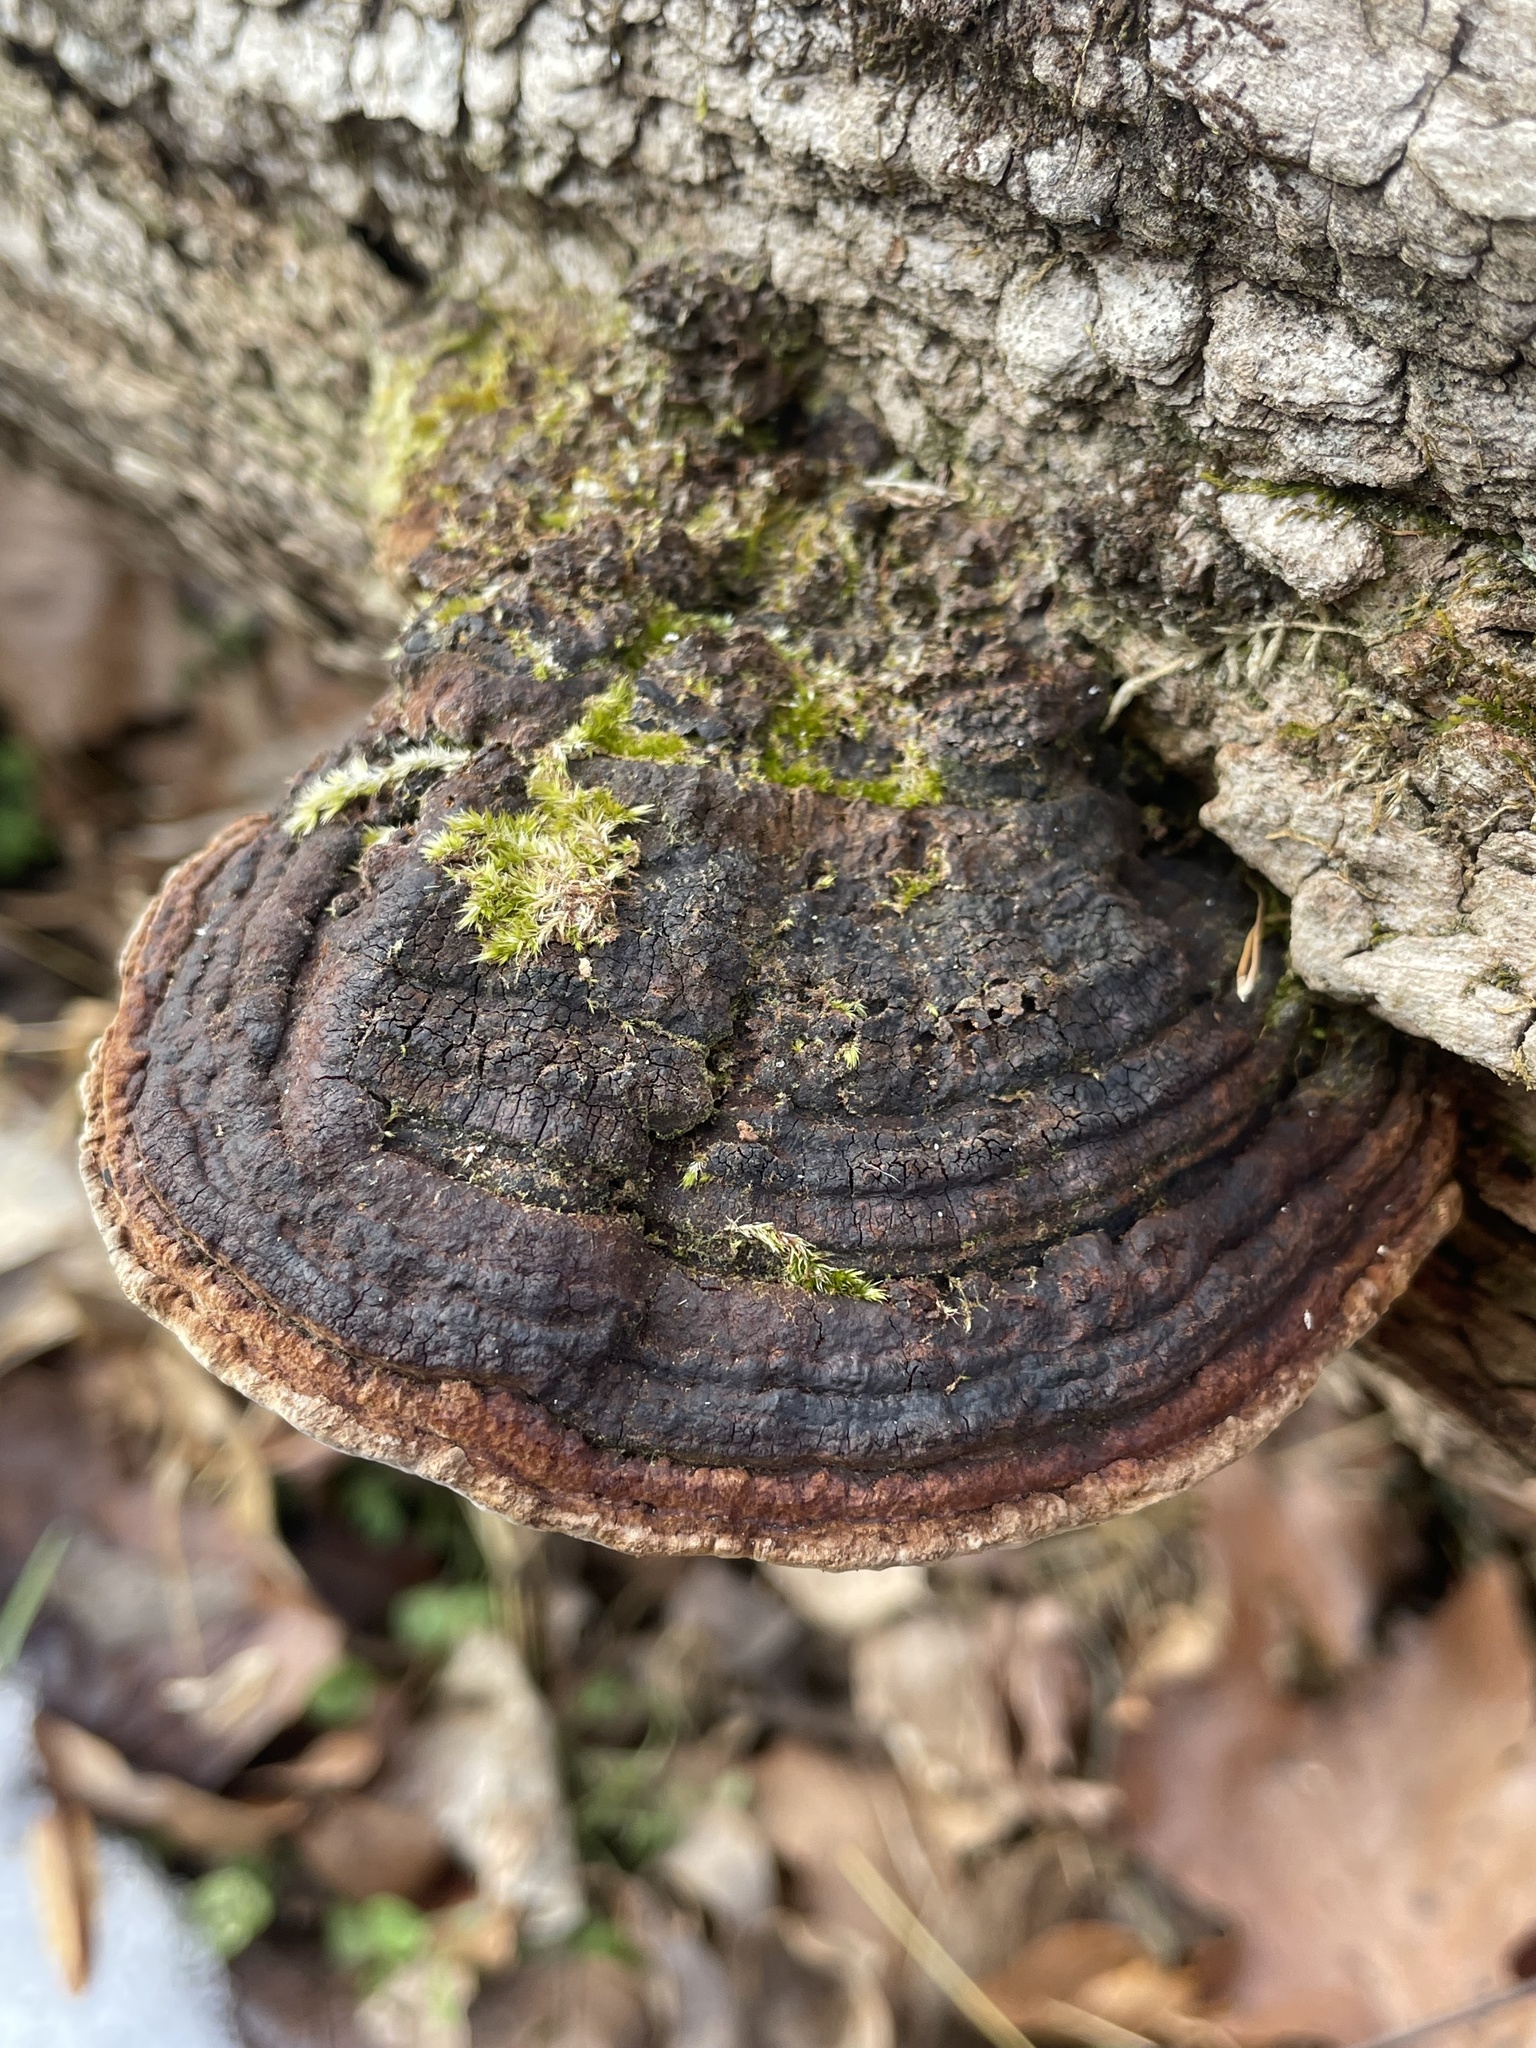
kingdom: Fungi
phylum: Basidiomycota
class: Agaricomycetes
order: Hymenochaetales
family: Hymenochaetaceae
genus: Phellinus
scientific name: Phellinus robiniae
